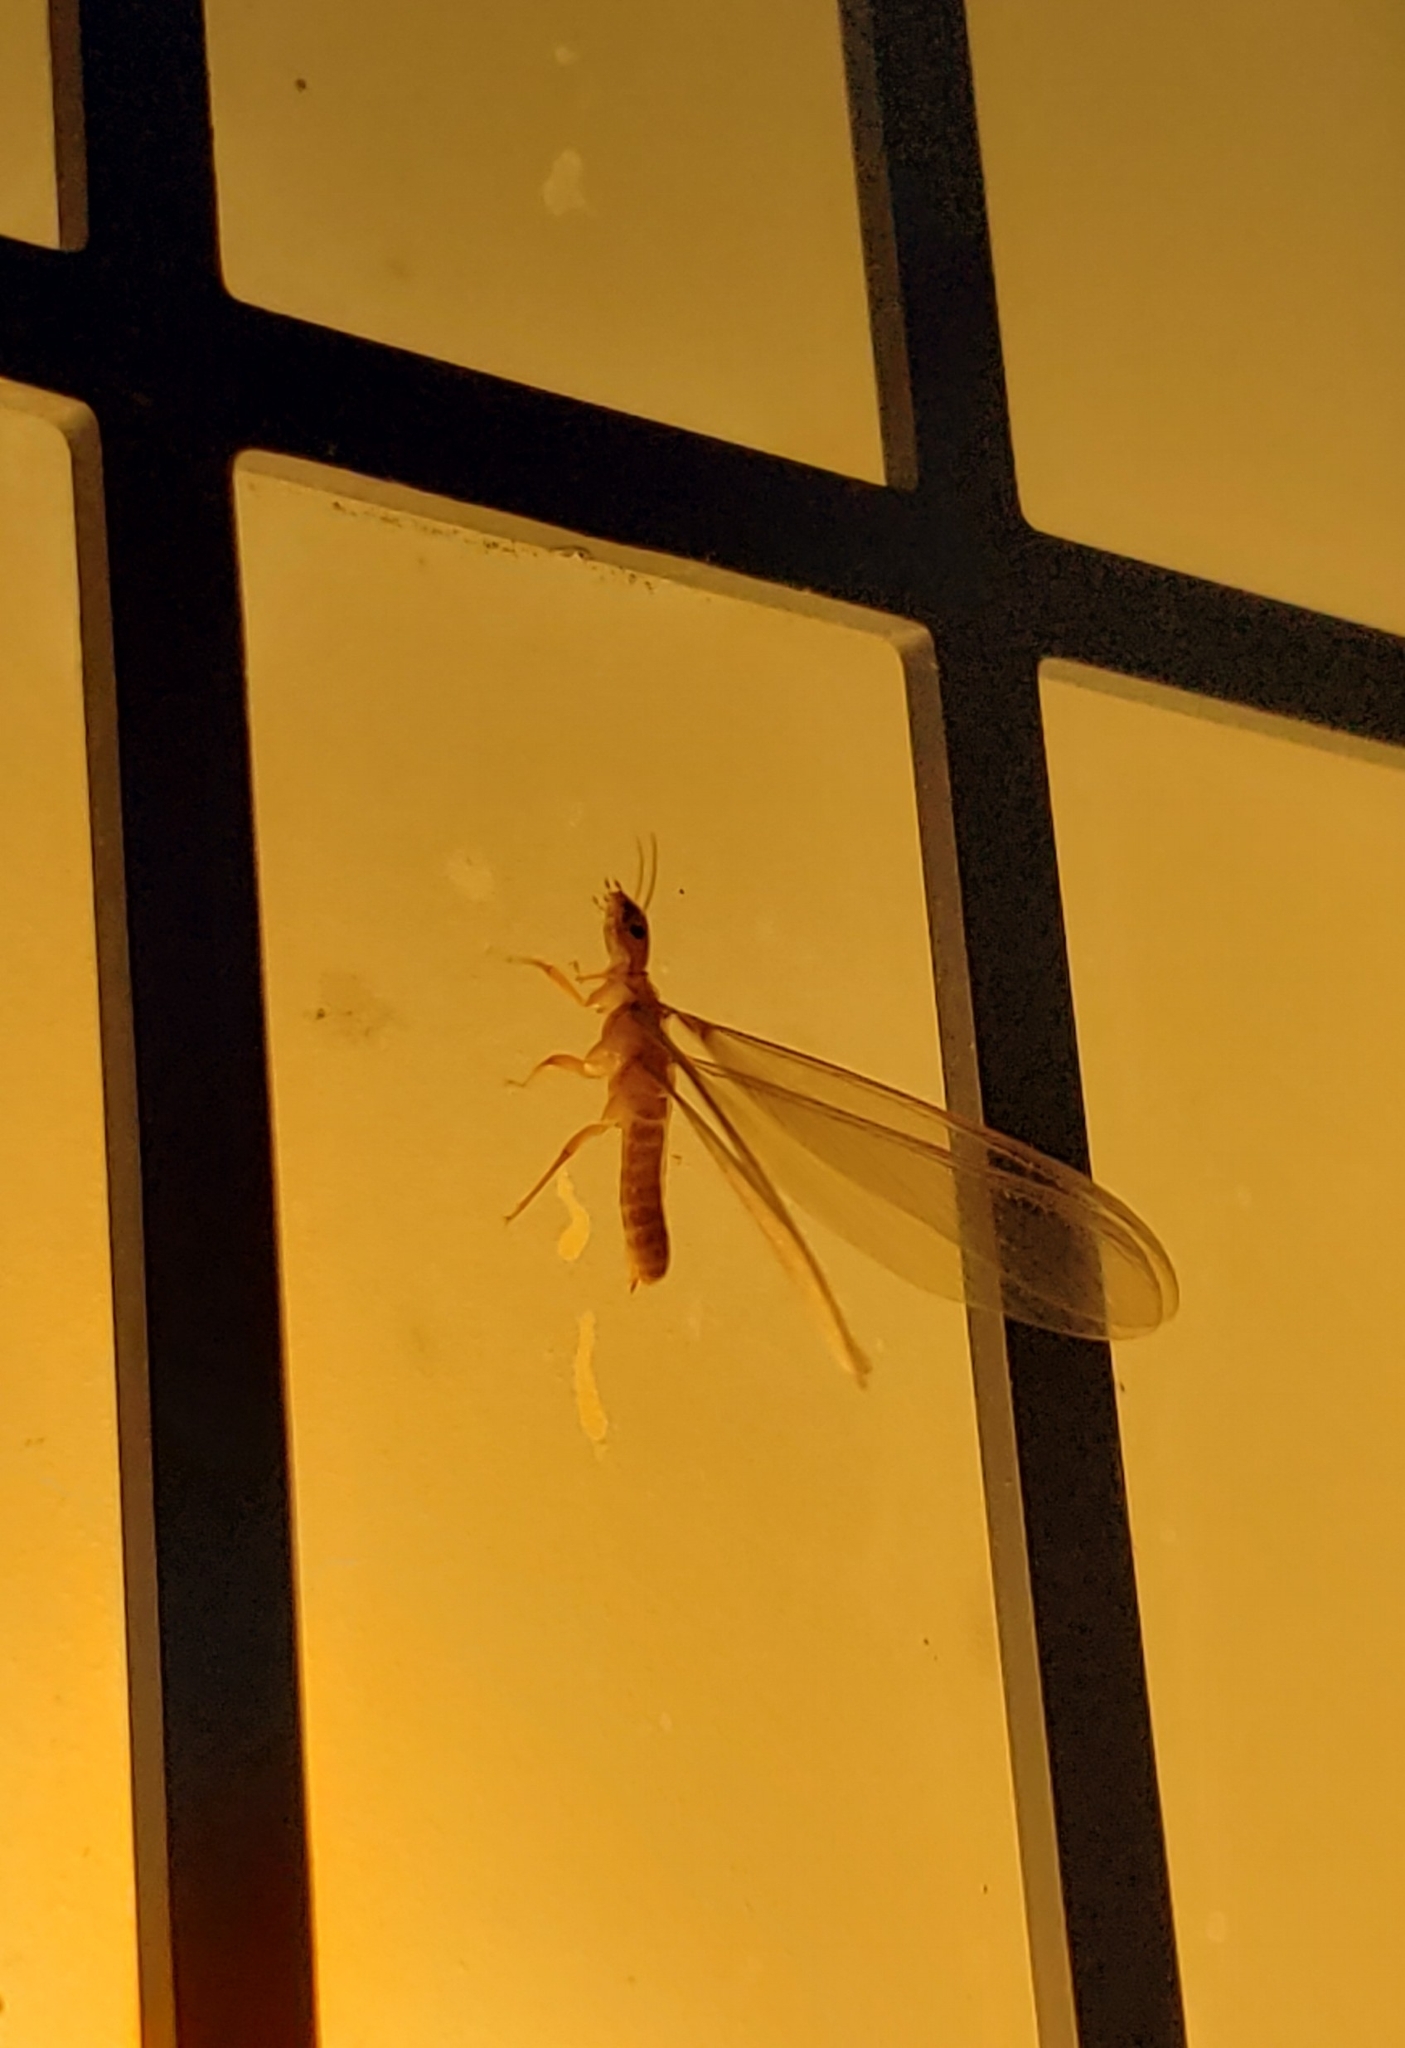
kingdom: Animalia
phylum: Arthropoda
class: Insecta
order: Blattodea
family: Archotermopsidae
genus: Zootermopsis
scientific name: Zootermopsis angusticollis
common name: Rottenwood termite
